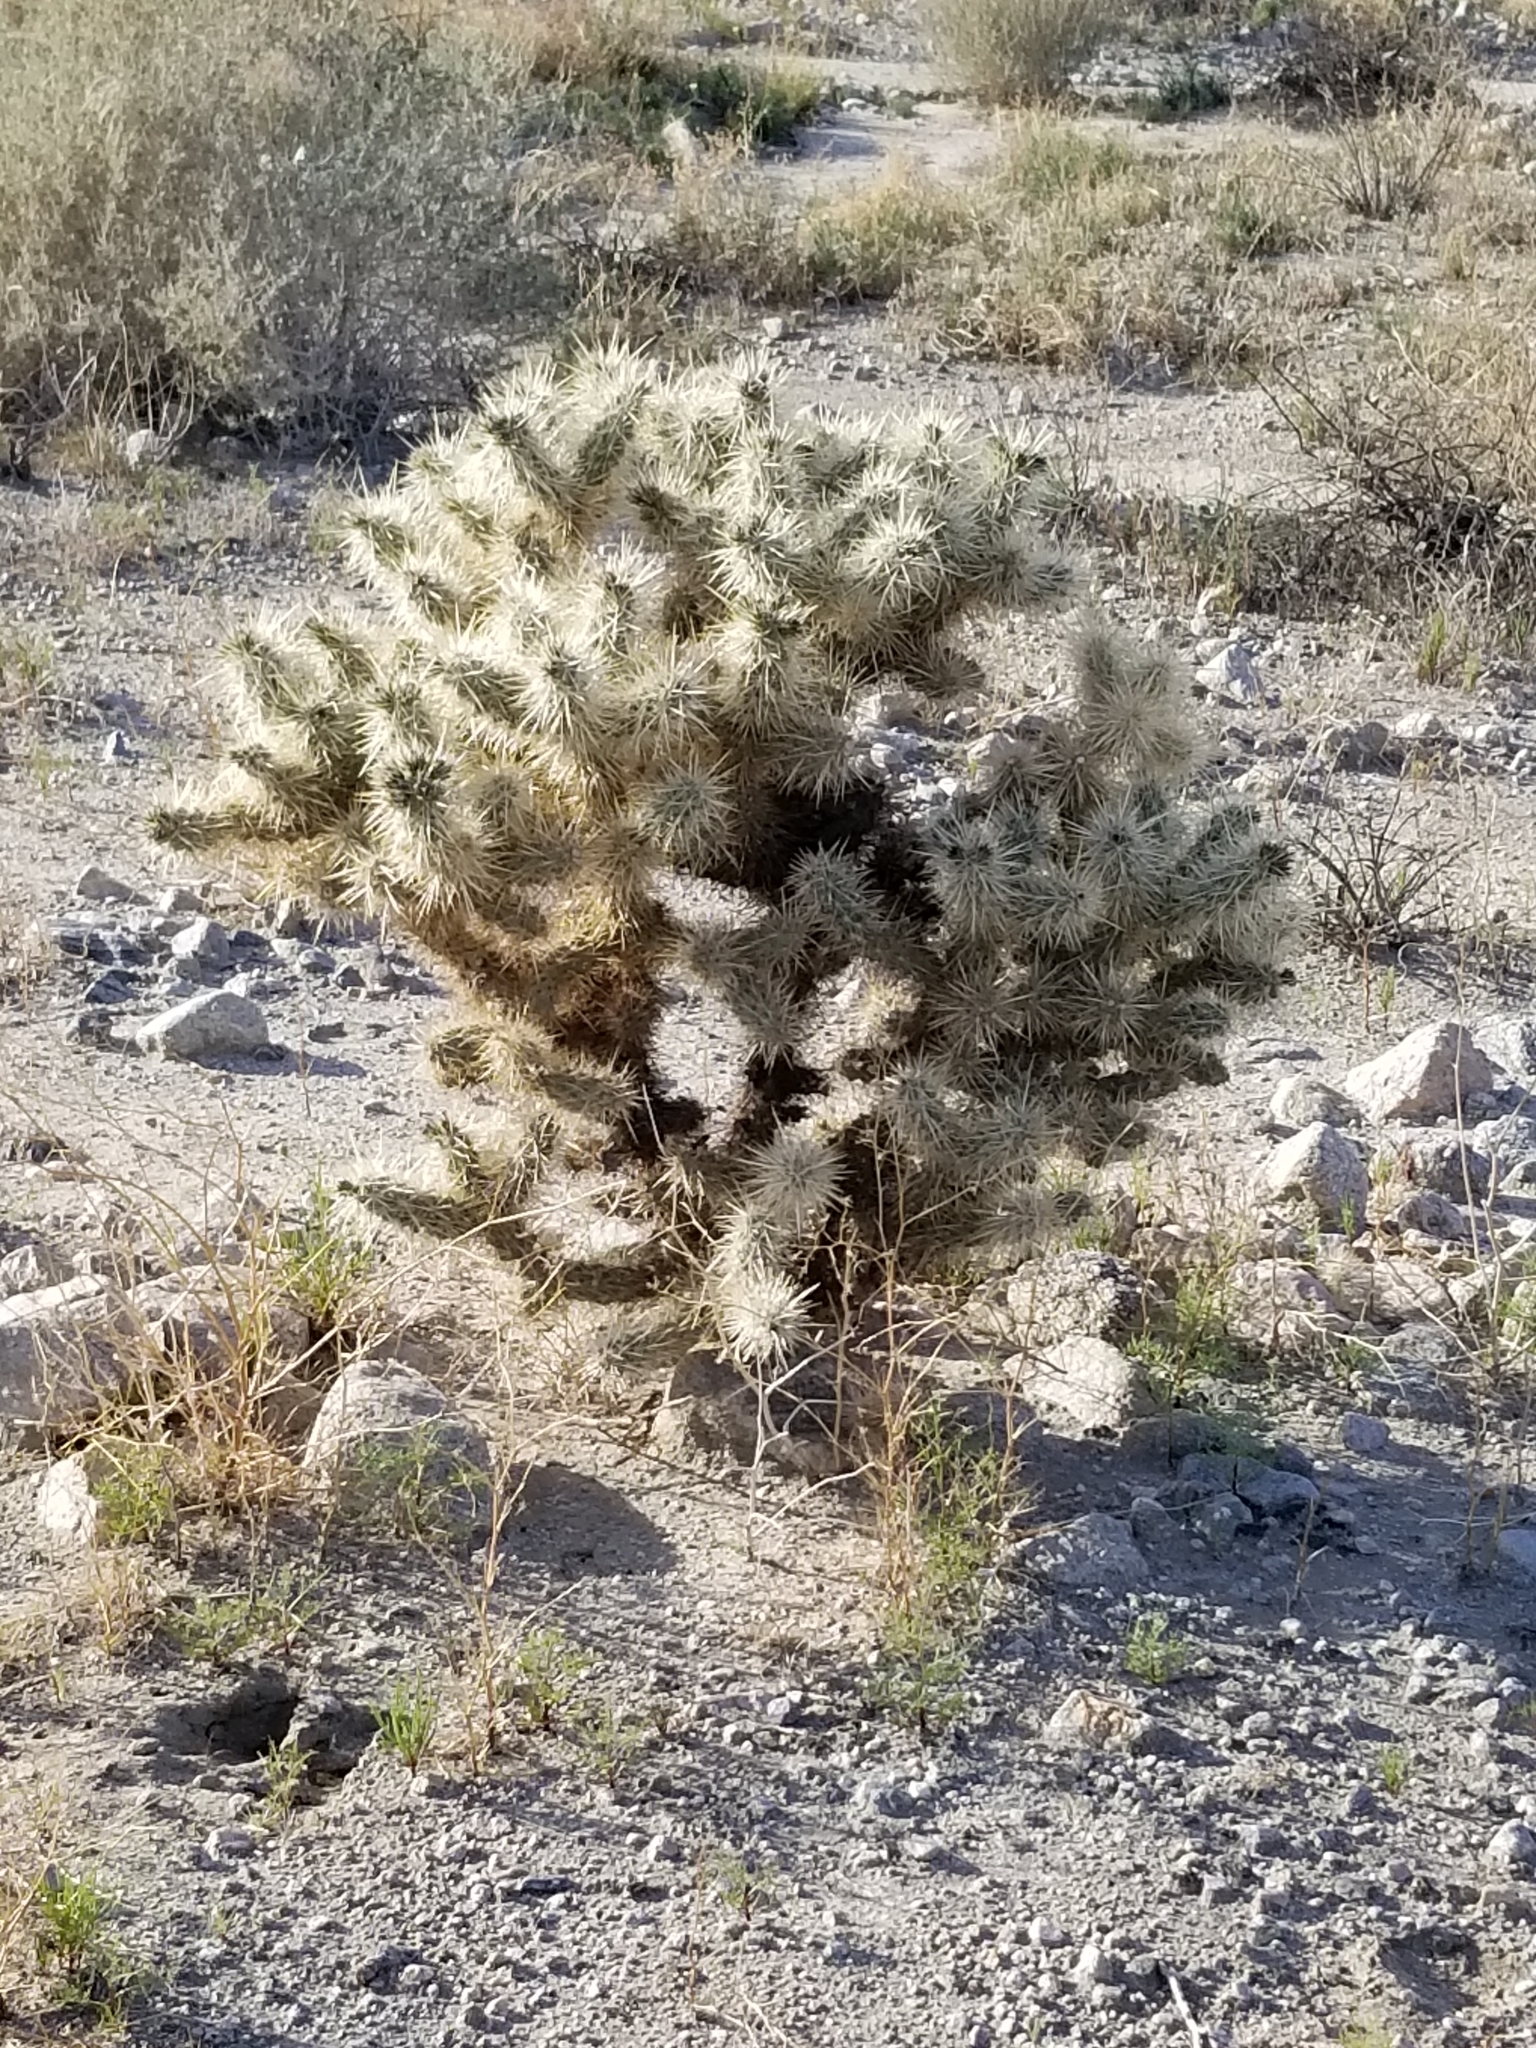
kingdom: Plantae
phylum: Tracheophyta
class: Magnoliopsida
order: Caryophyllales
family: Cactaceae
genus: Cylindropuntia
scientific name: Cylindropuntia echinocarpa
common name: Ground cholla
